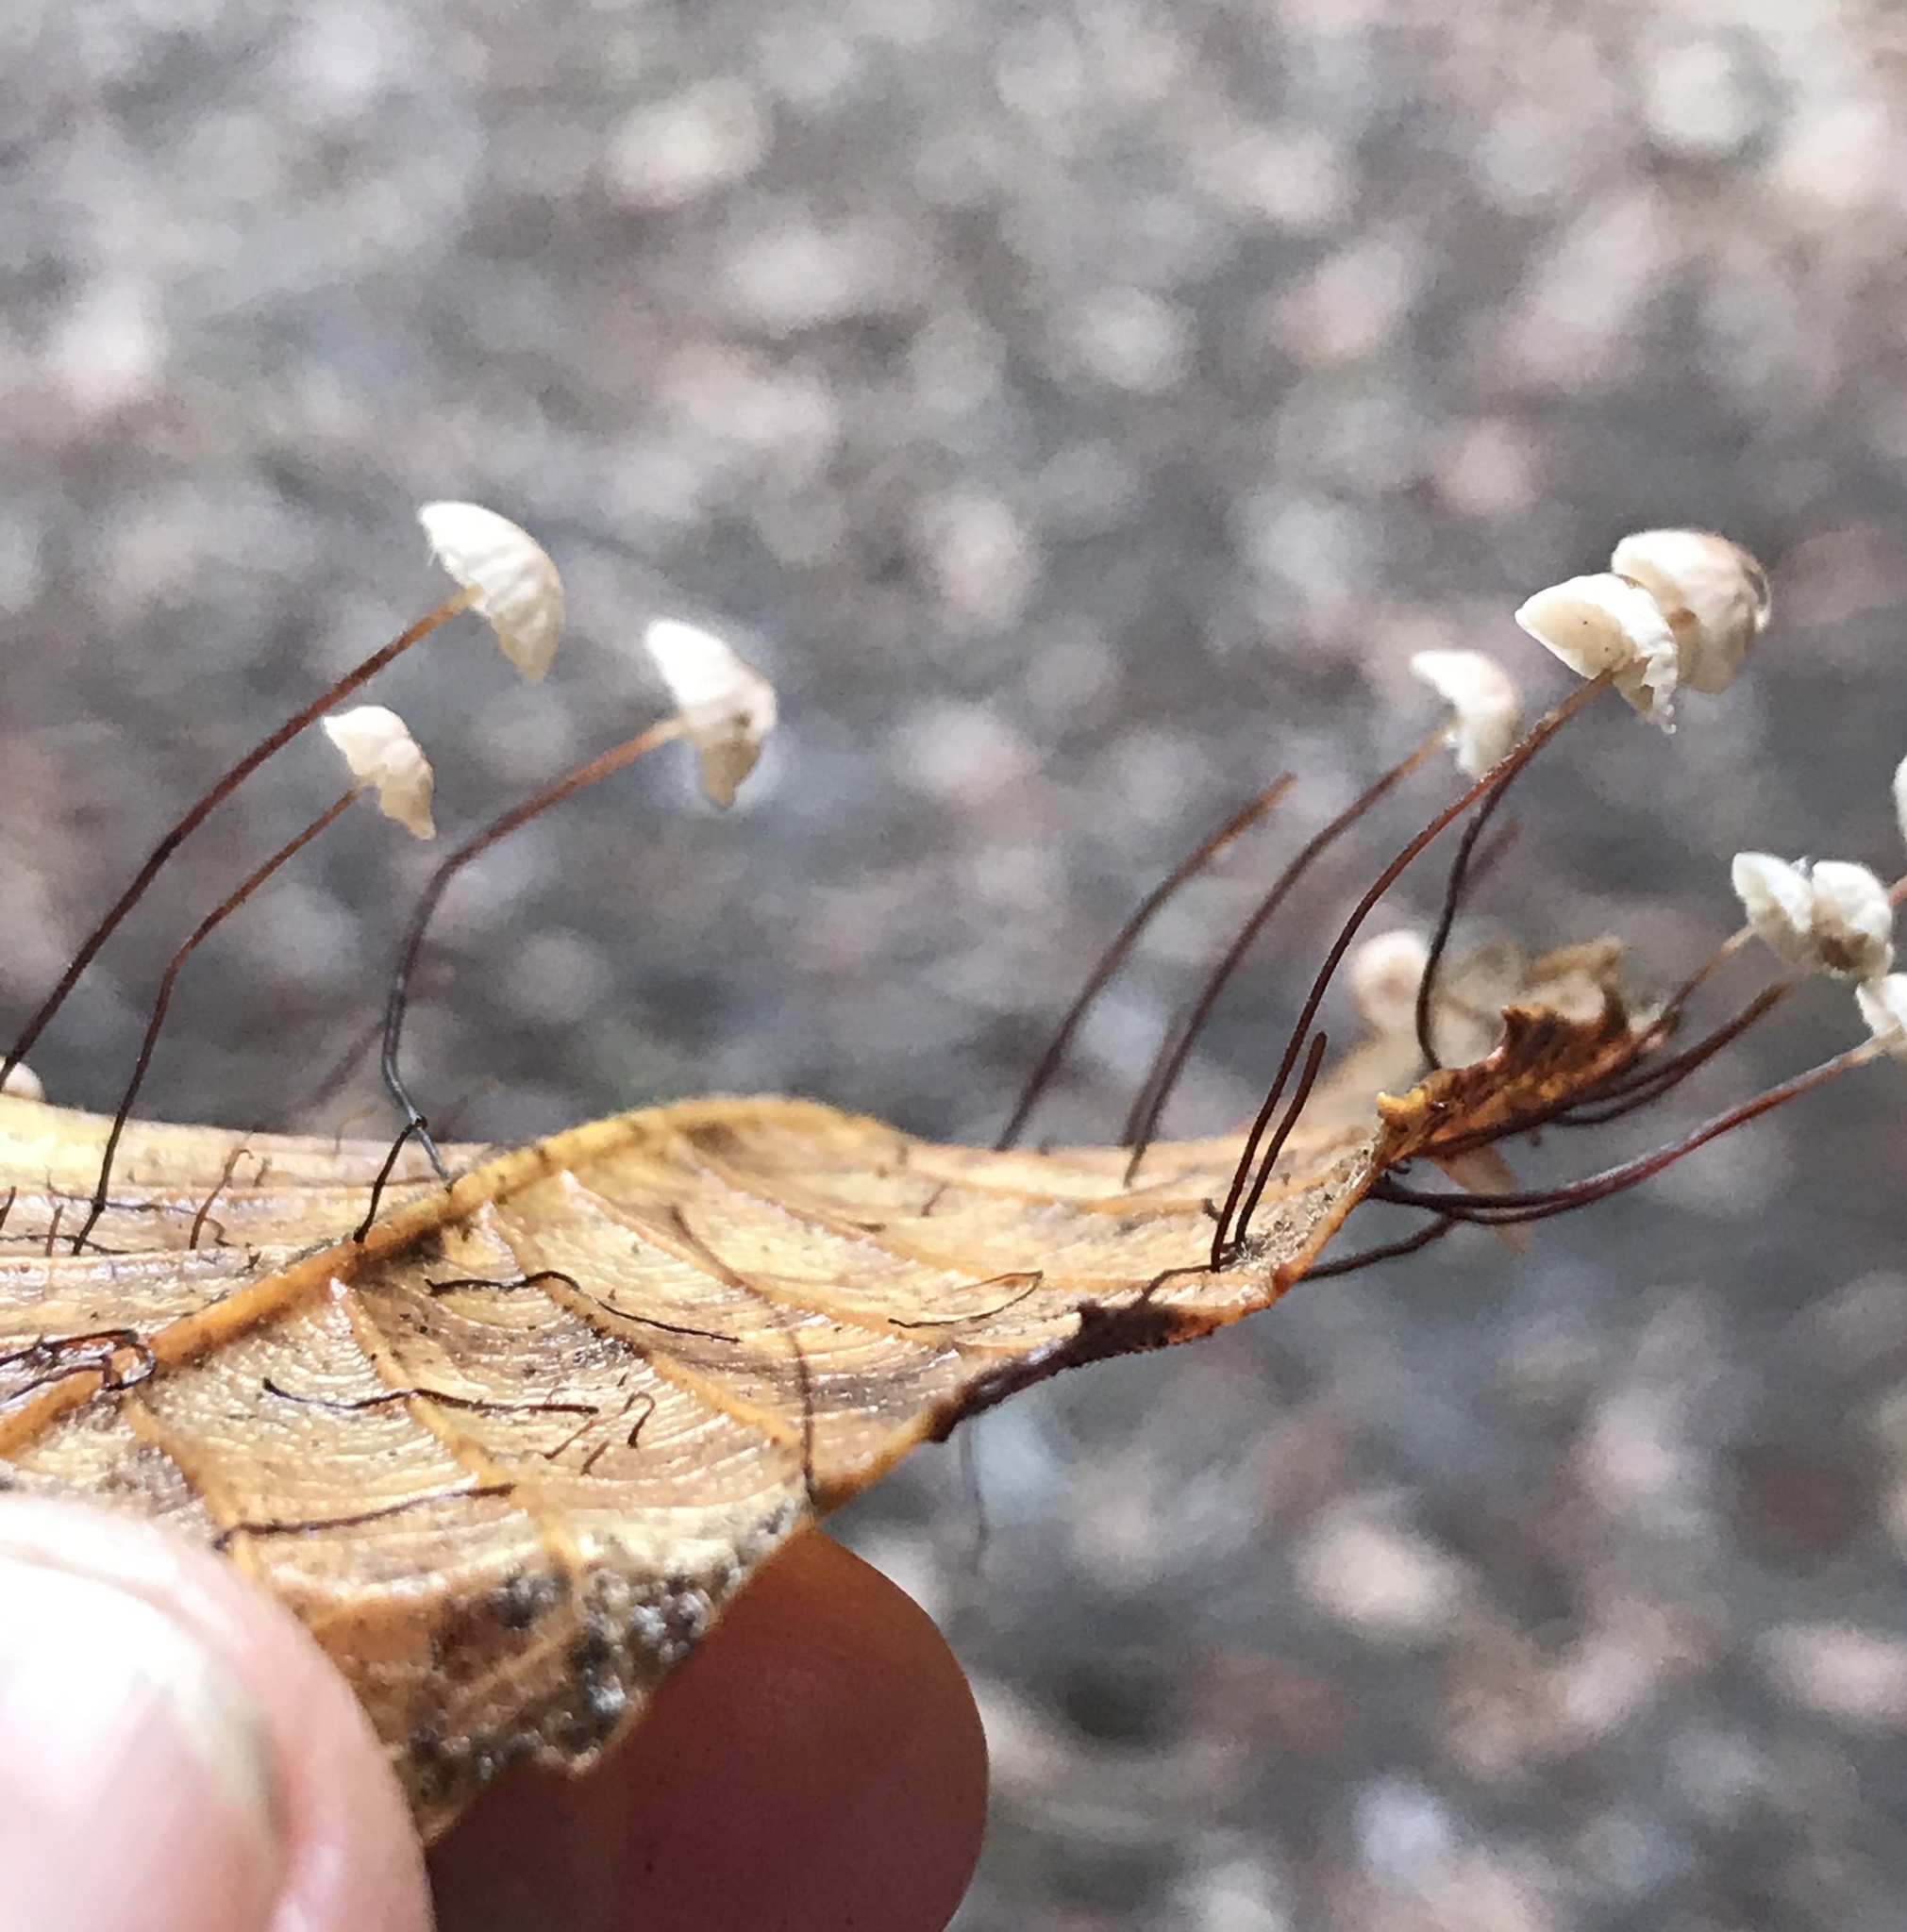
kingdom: Fungi
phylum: Basidiomycota
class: Agaricomycetes
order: Agaricales
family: Omphalotaceae
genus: Collybiopsis
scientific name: Collybiopsis quercophila
